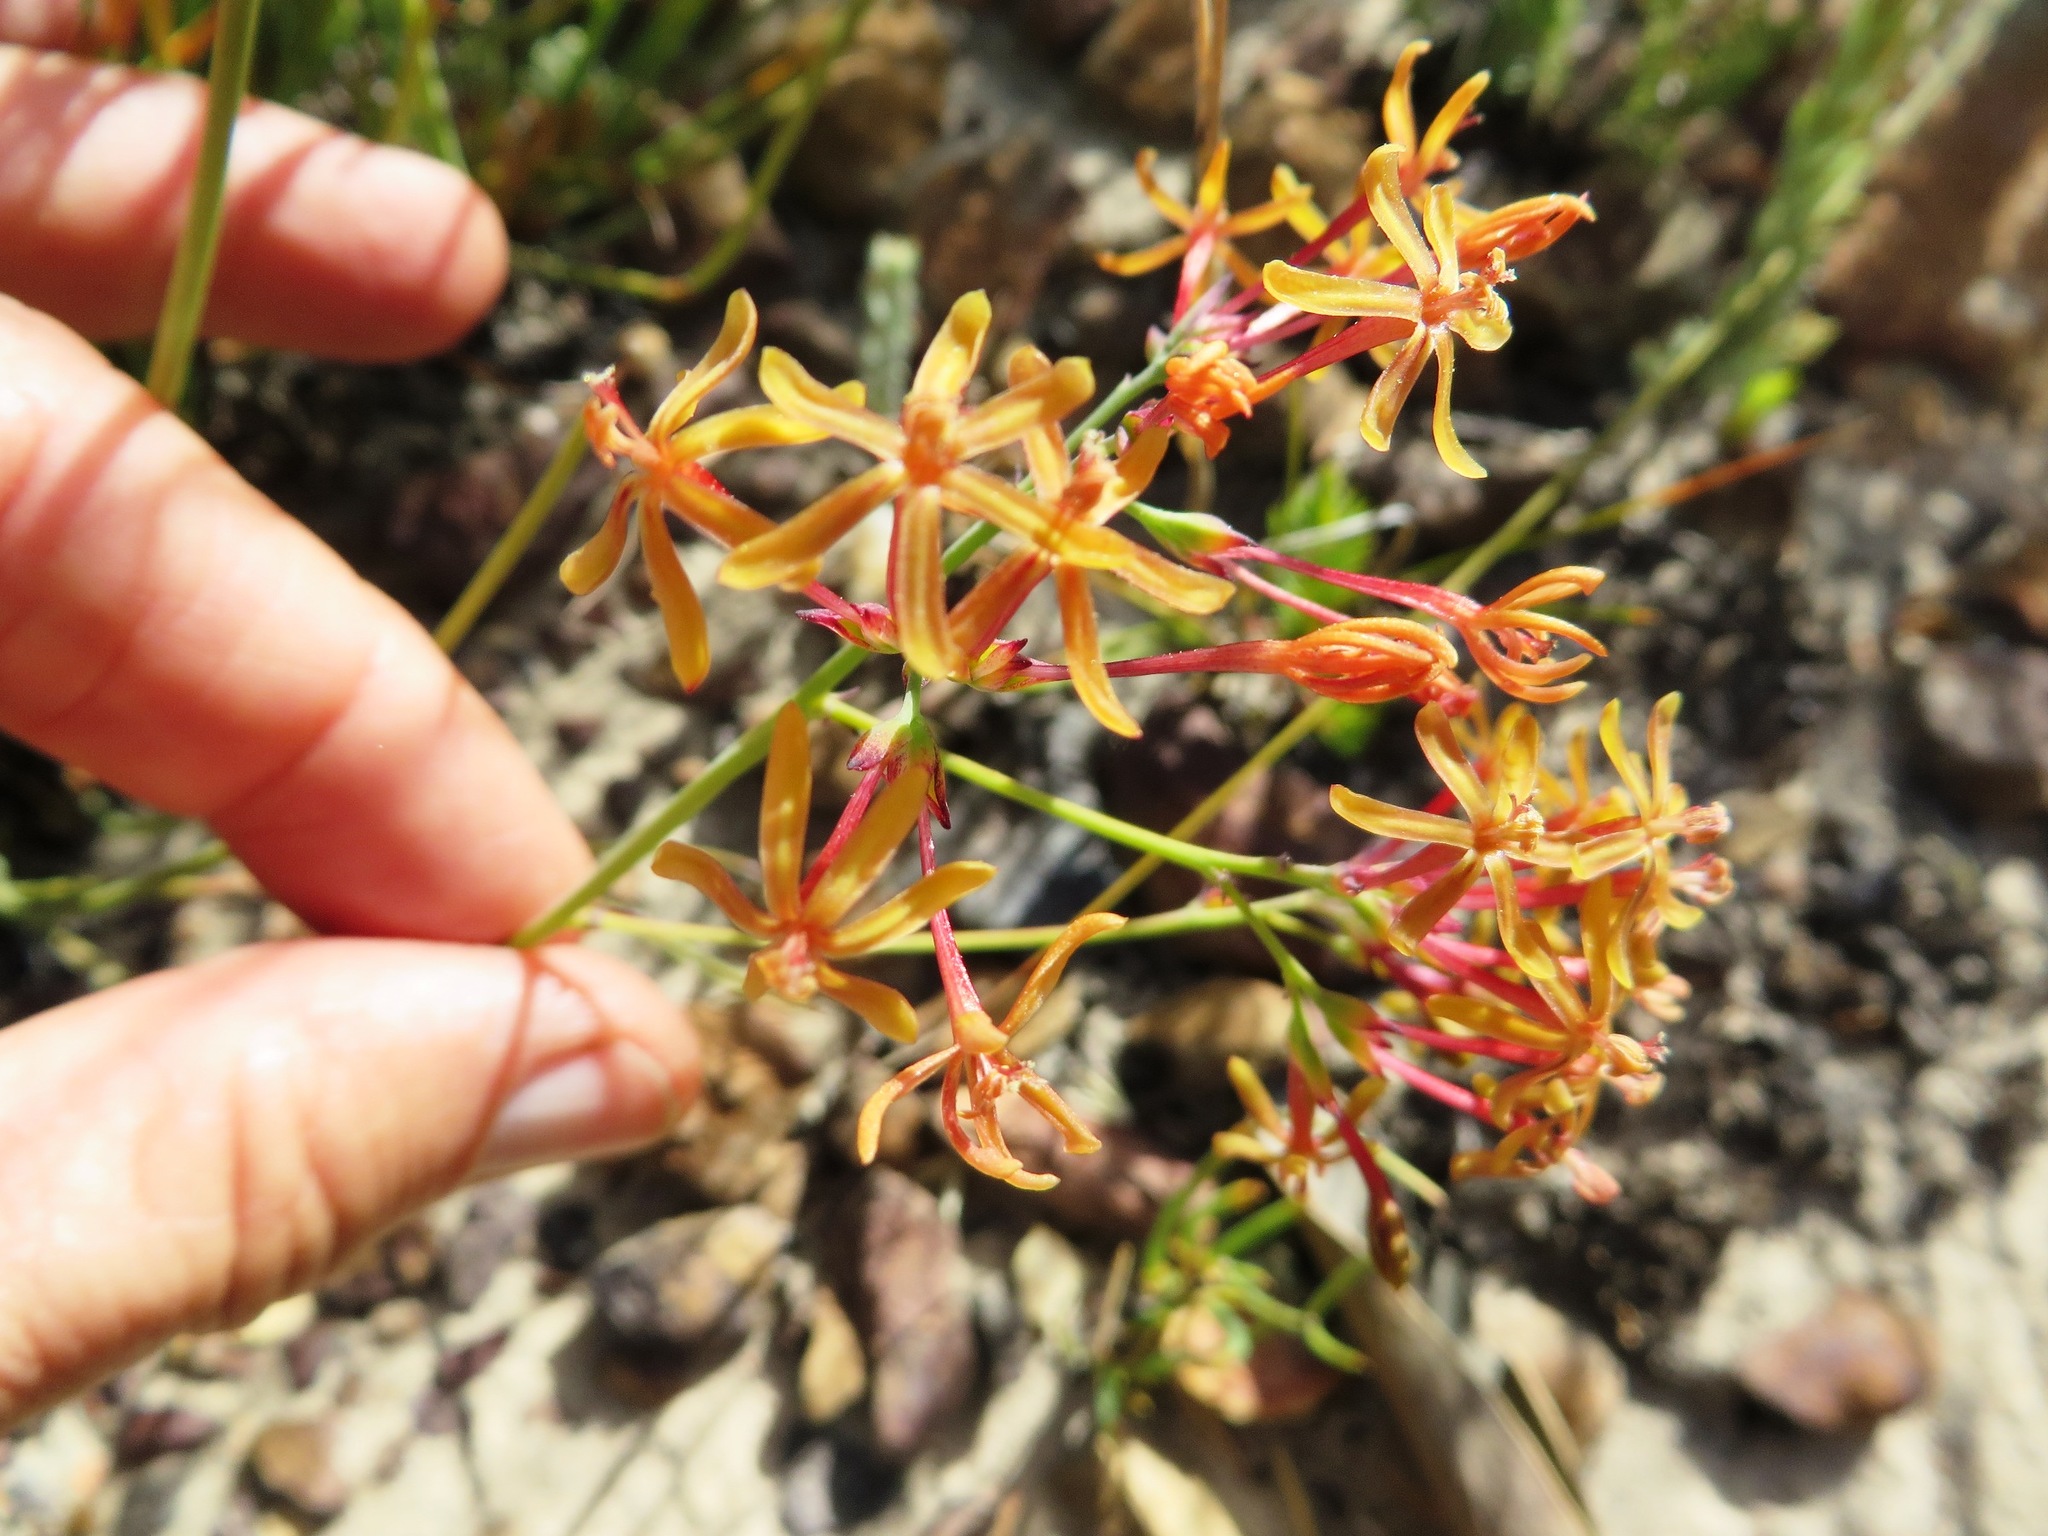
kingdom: Plantae
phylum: Tracheophyta
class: Liliopsida
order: Asparagales
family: Iridaceae
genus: Codonorhiza
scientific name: Codonorhiza micrantha
